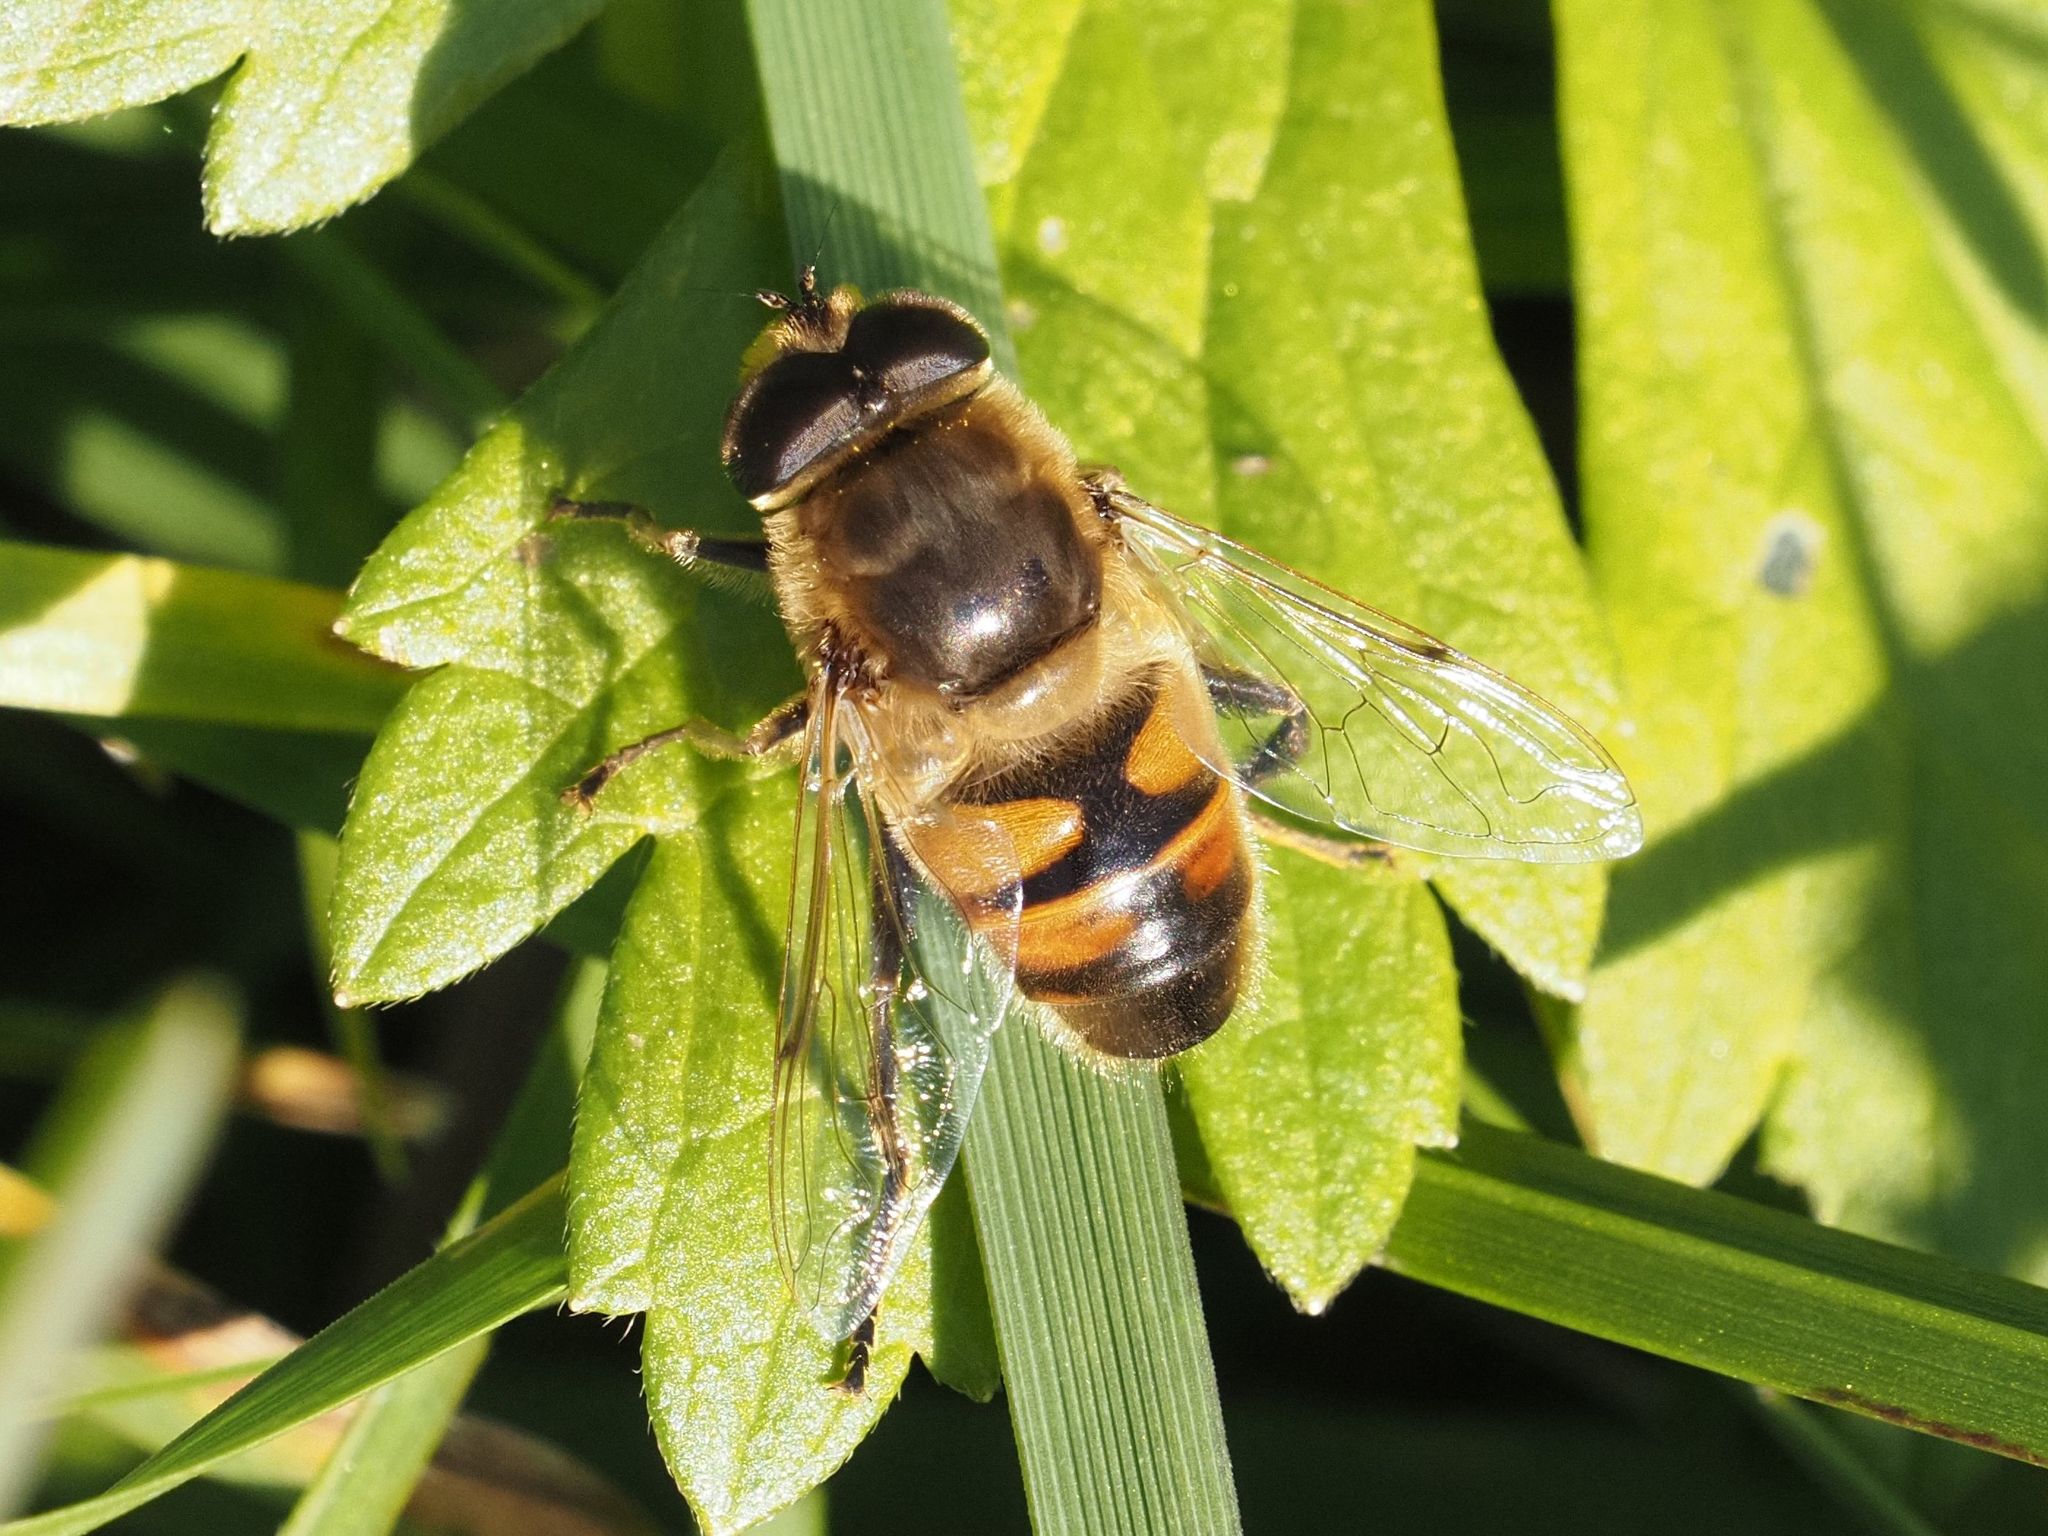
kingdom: Animalia
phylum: Arthropoda
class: Insecta
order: Diptera
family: Syrphidae
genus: Eristalis
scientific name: Eristalis tenax
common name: Drone fly
